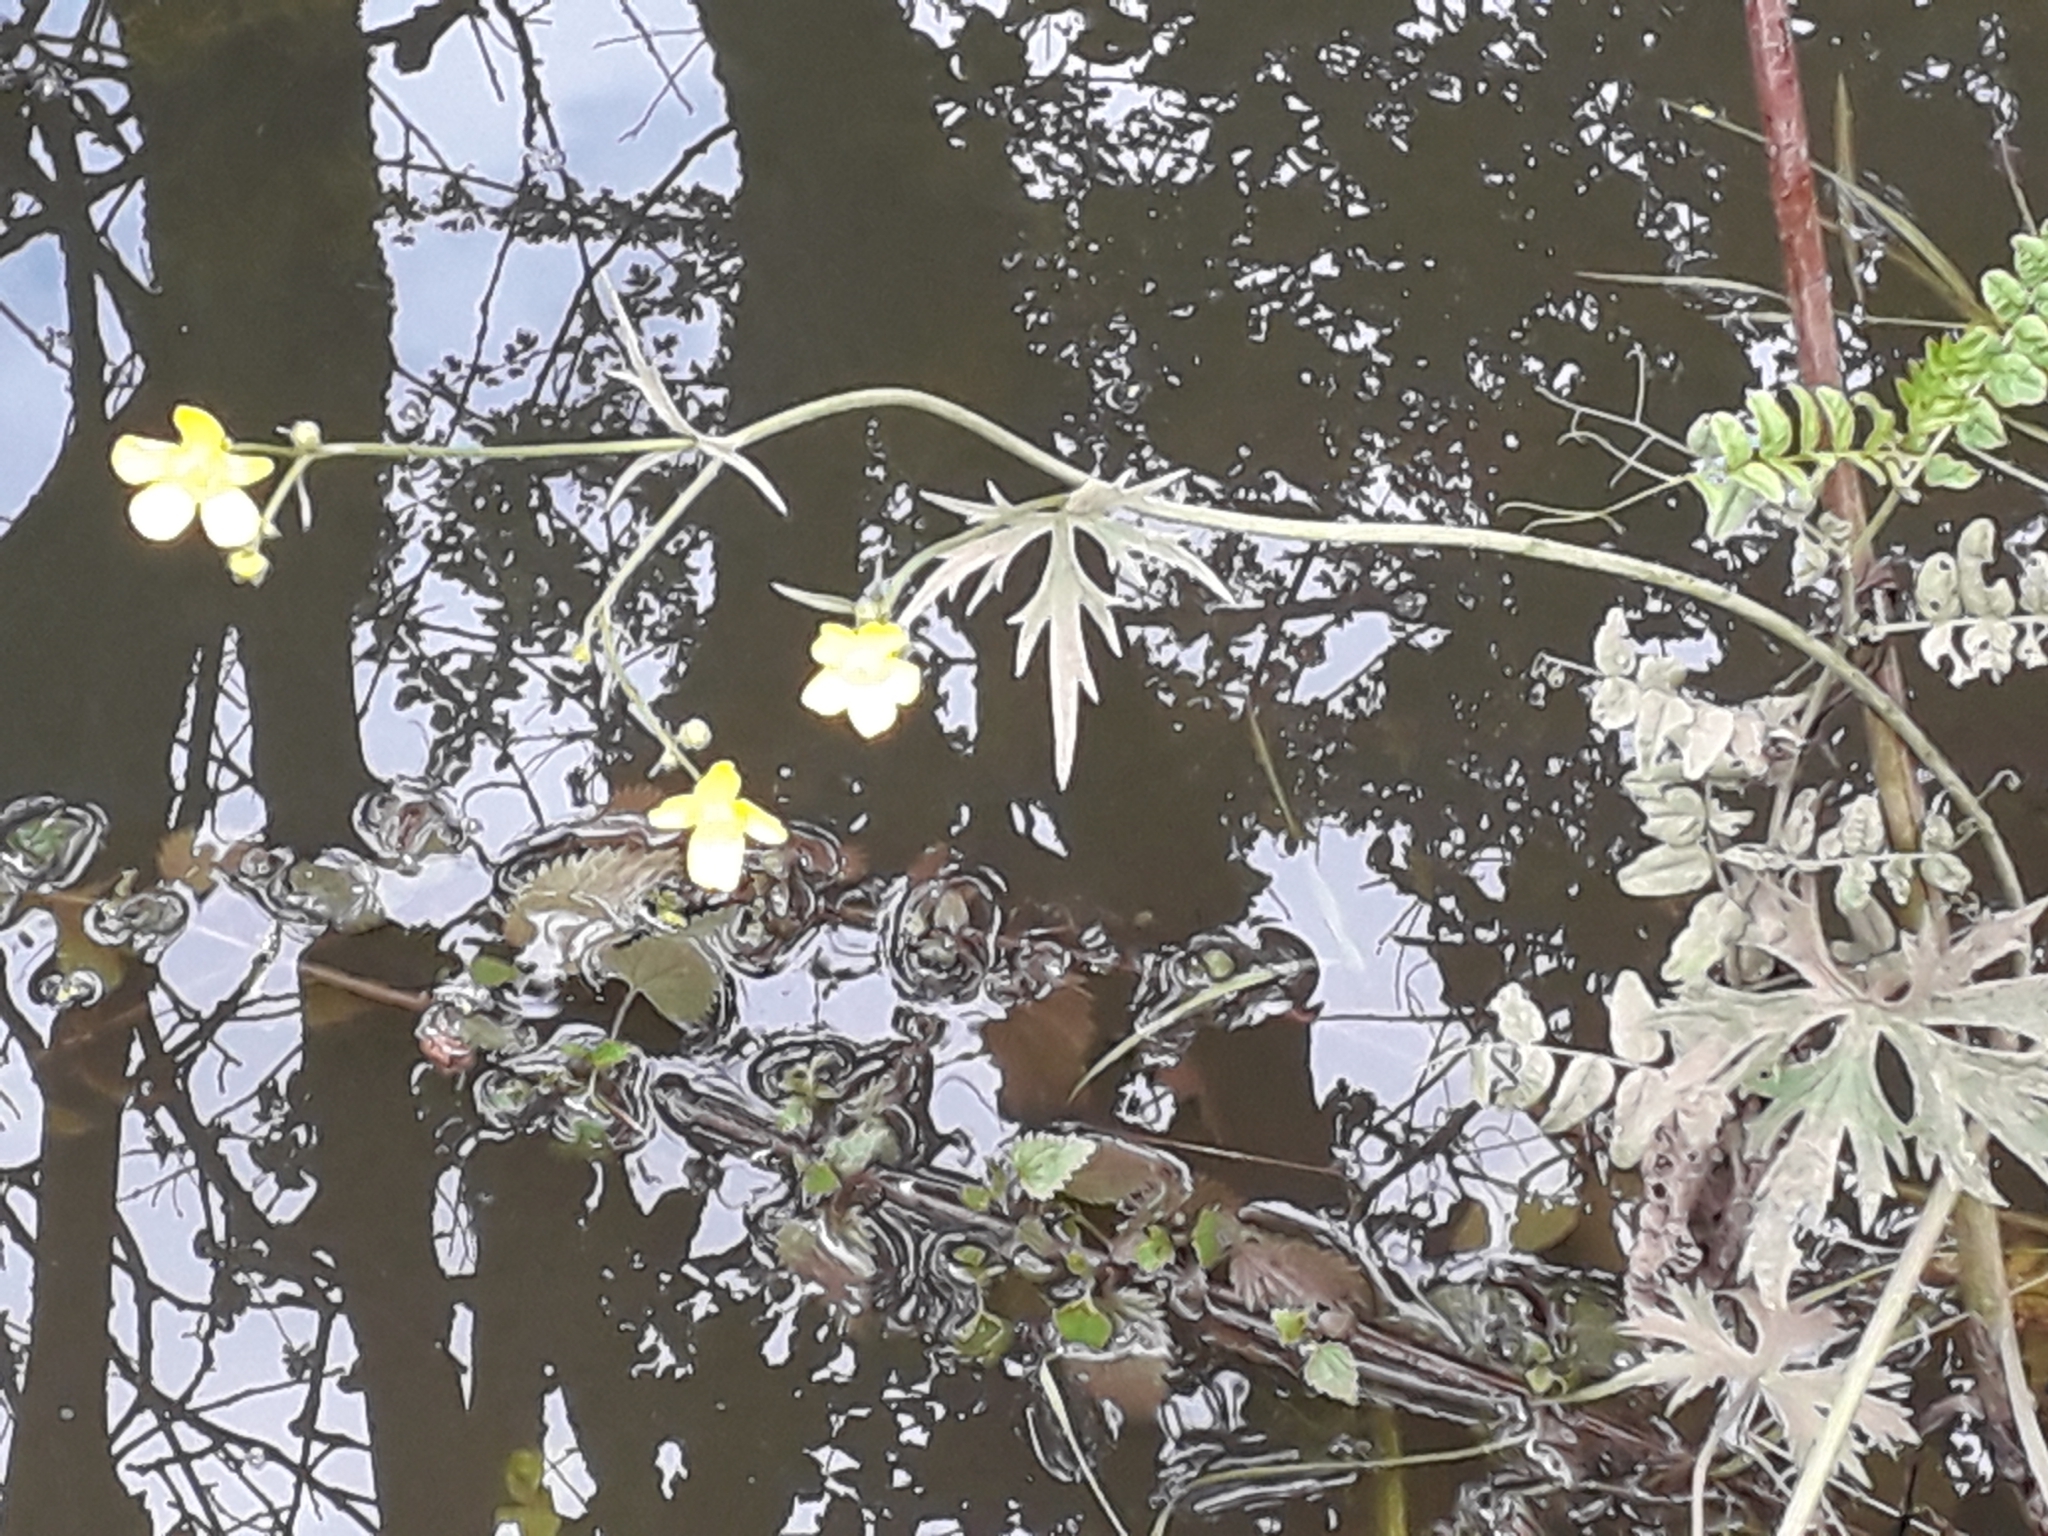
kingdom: Plantae
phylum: Tracheophyta
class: Magnoliopsida
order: Ranunculales
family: Ranunculaceae
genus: Ranunculus
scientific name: Ranunculus acris
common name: Meadow buttercup
